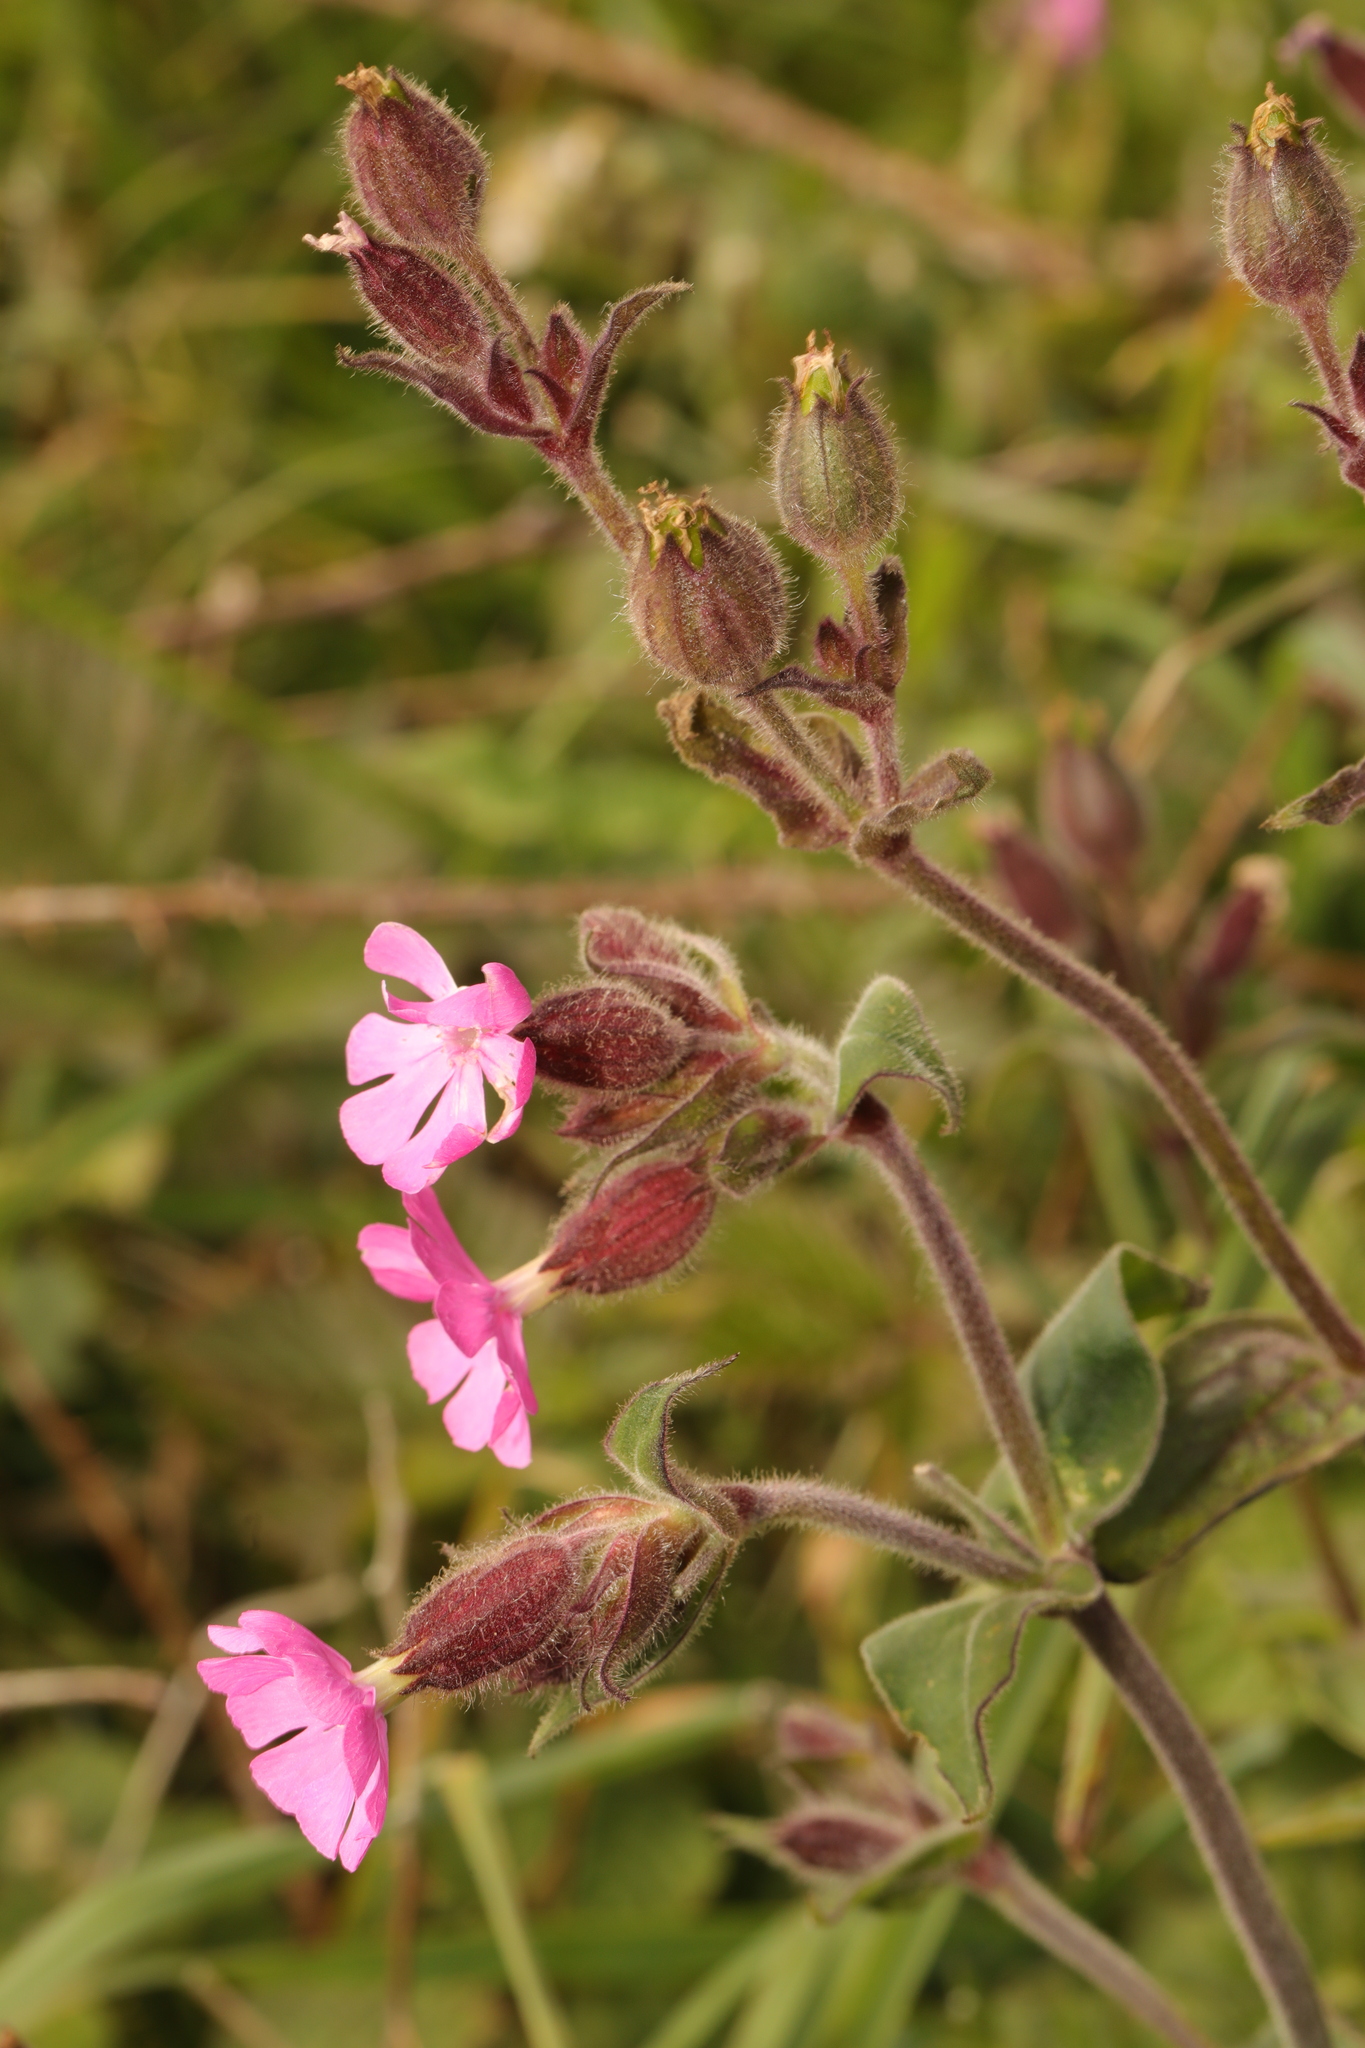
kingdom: Plantae
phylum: Tracheophyta
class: Magnoliopsida
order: Caryophyllales
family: Caryophyllaceae
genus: Silene
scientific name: Silene dioica
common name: Red campion
